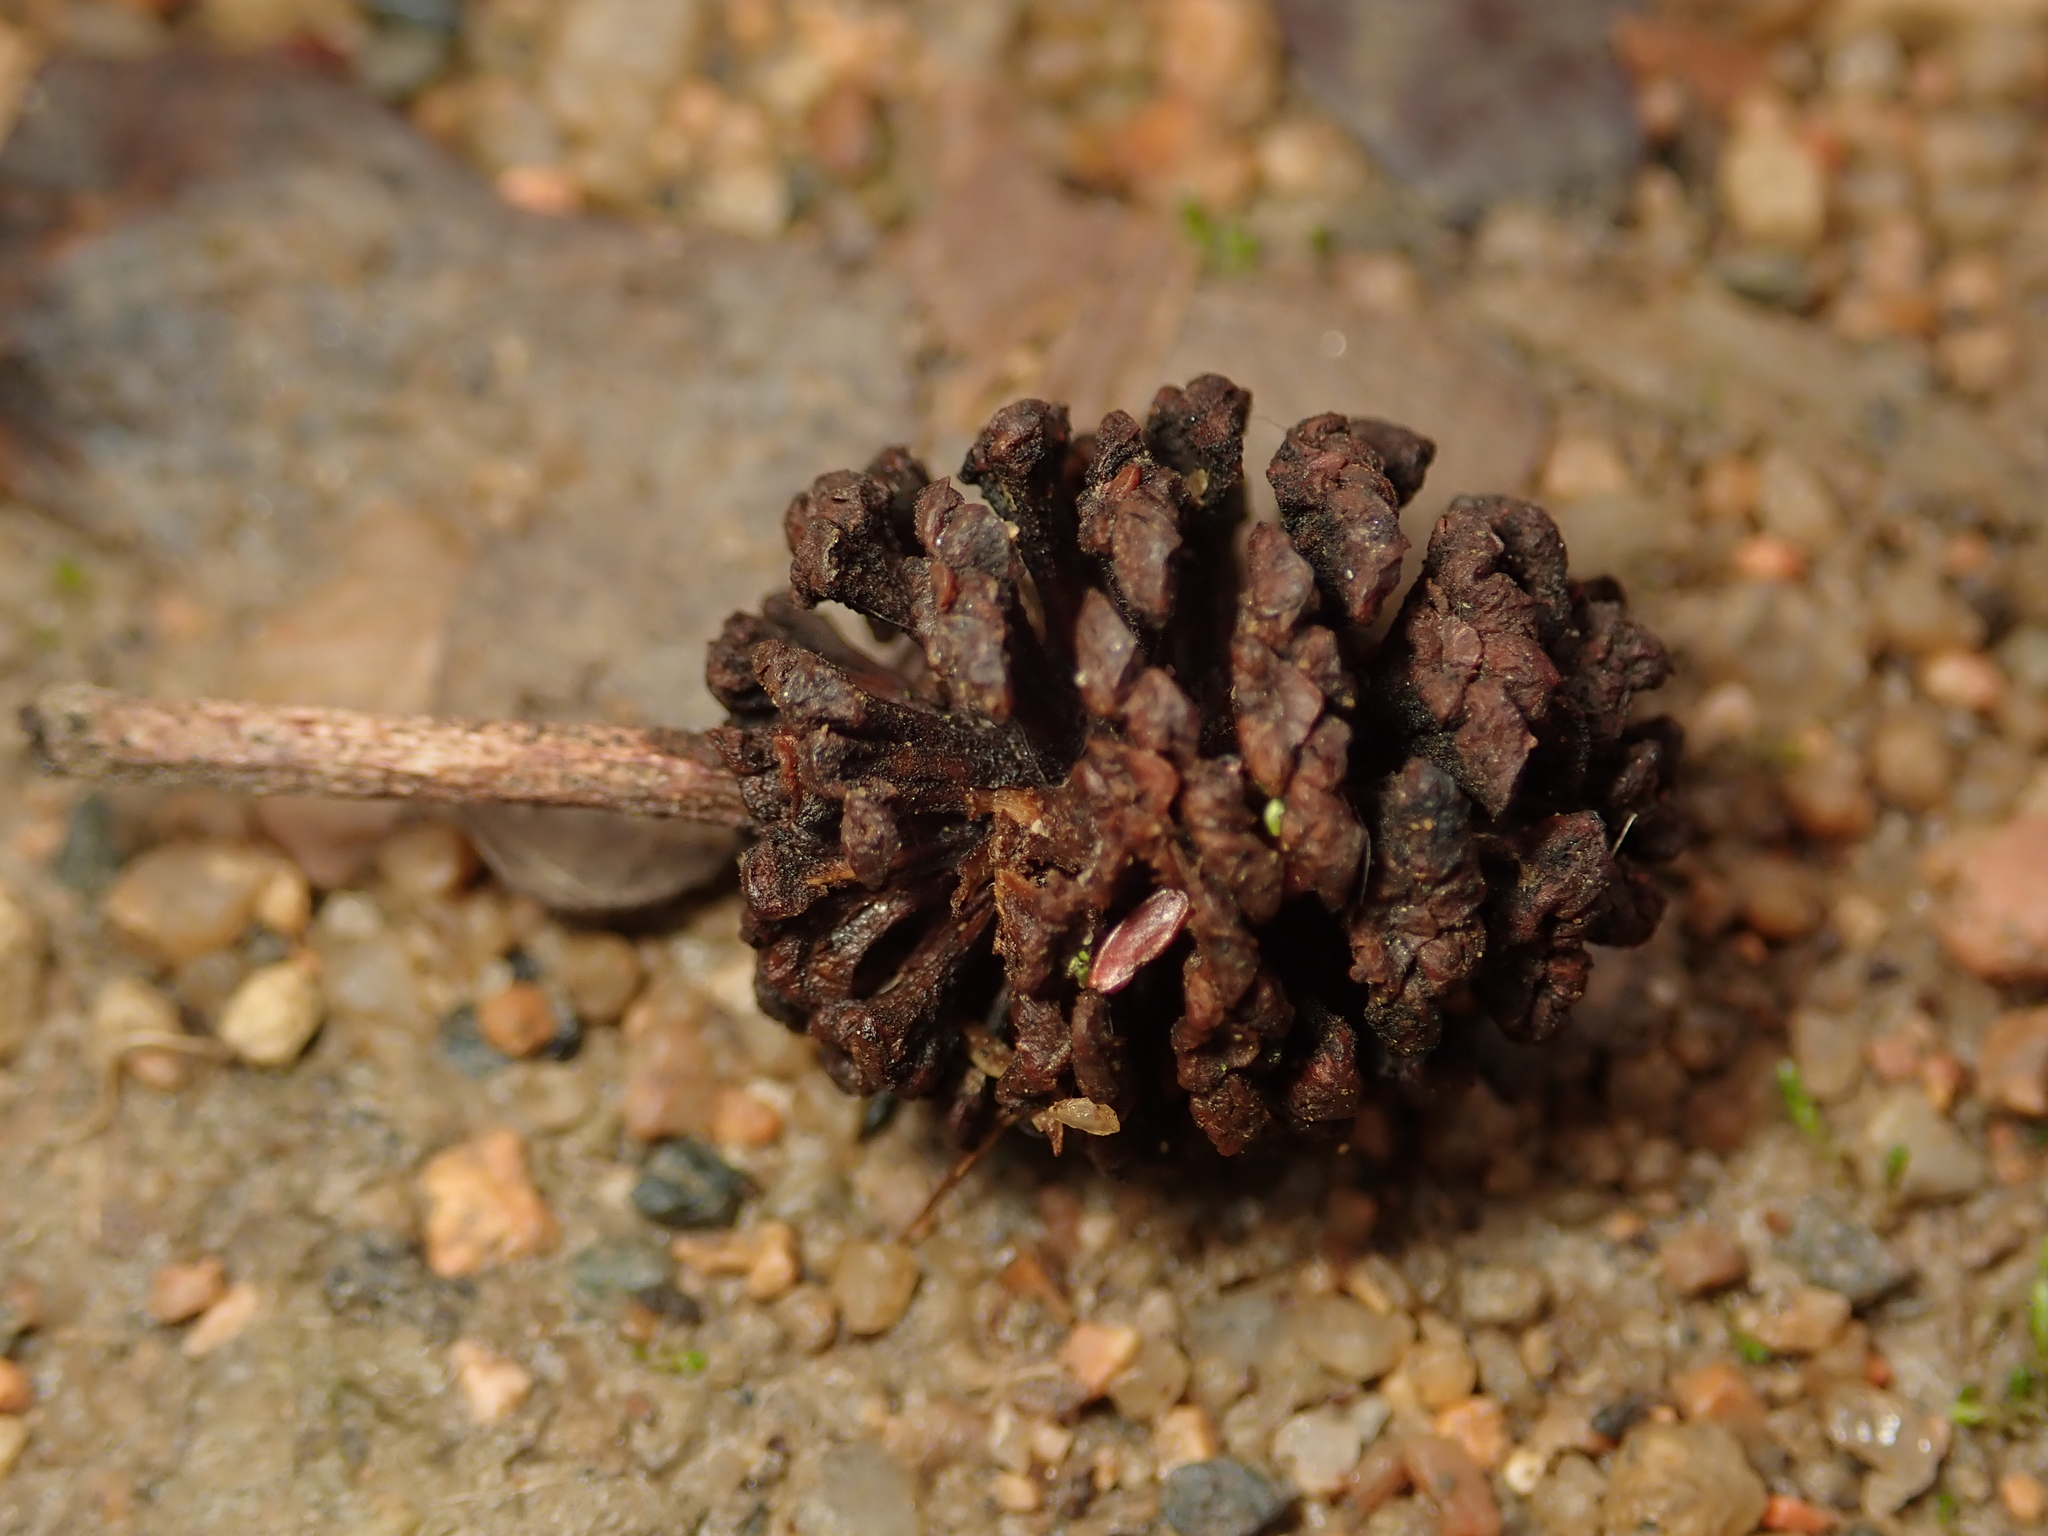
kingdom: Plantae
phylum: Tracheophyta
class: Magnoliopsida
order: Fagales
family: Betulaceae
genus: Alnus
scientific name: Alnus glutinosa
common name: Black alder
